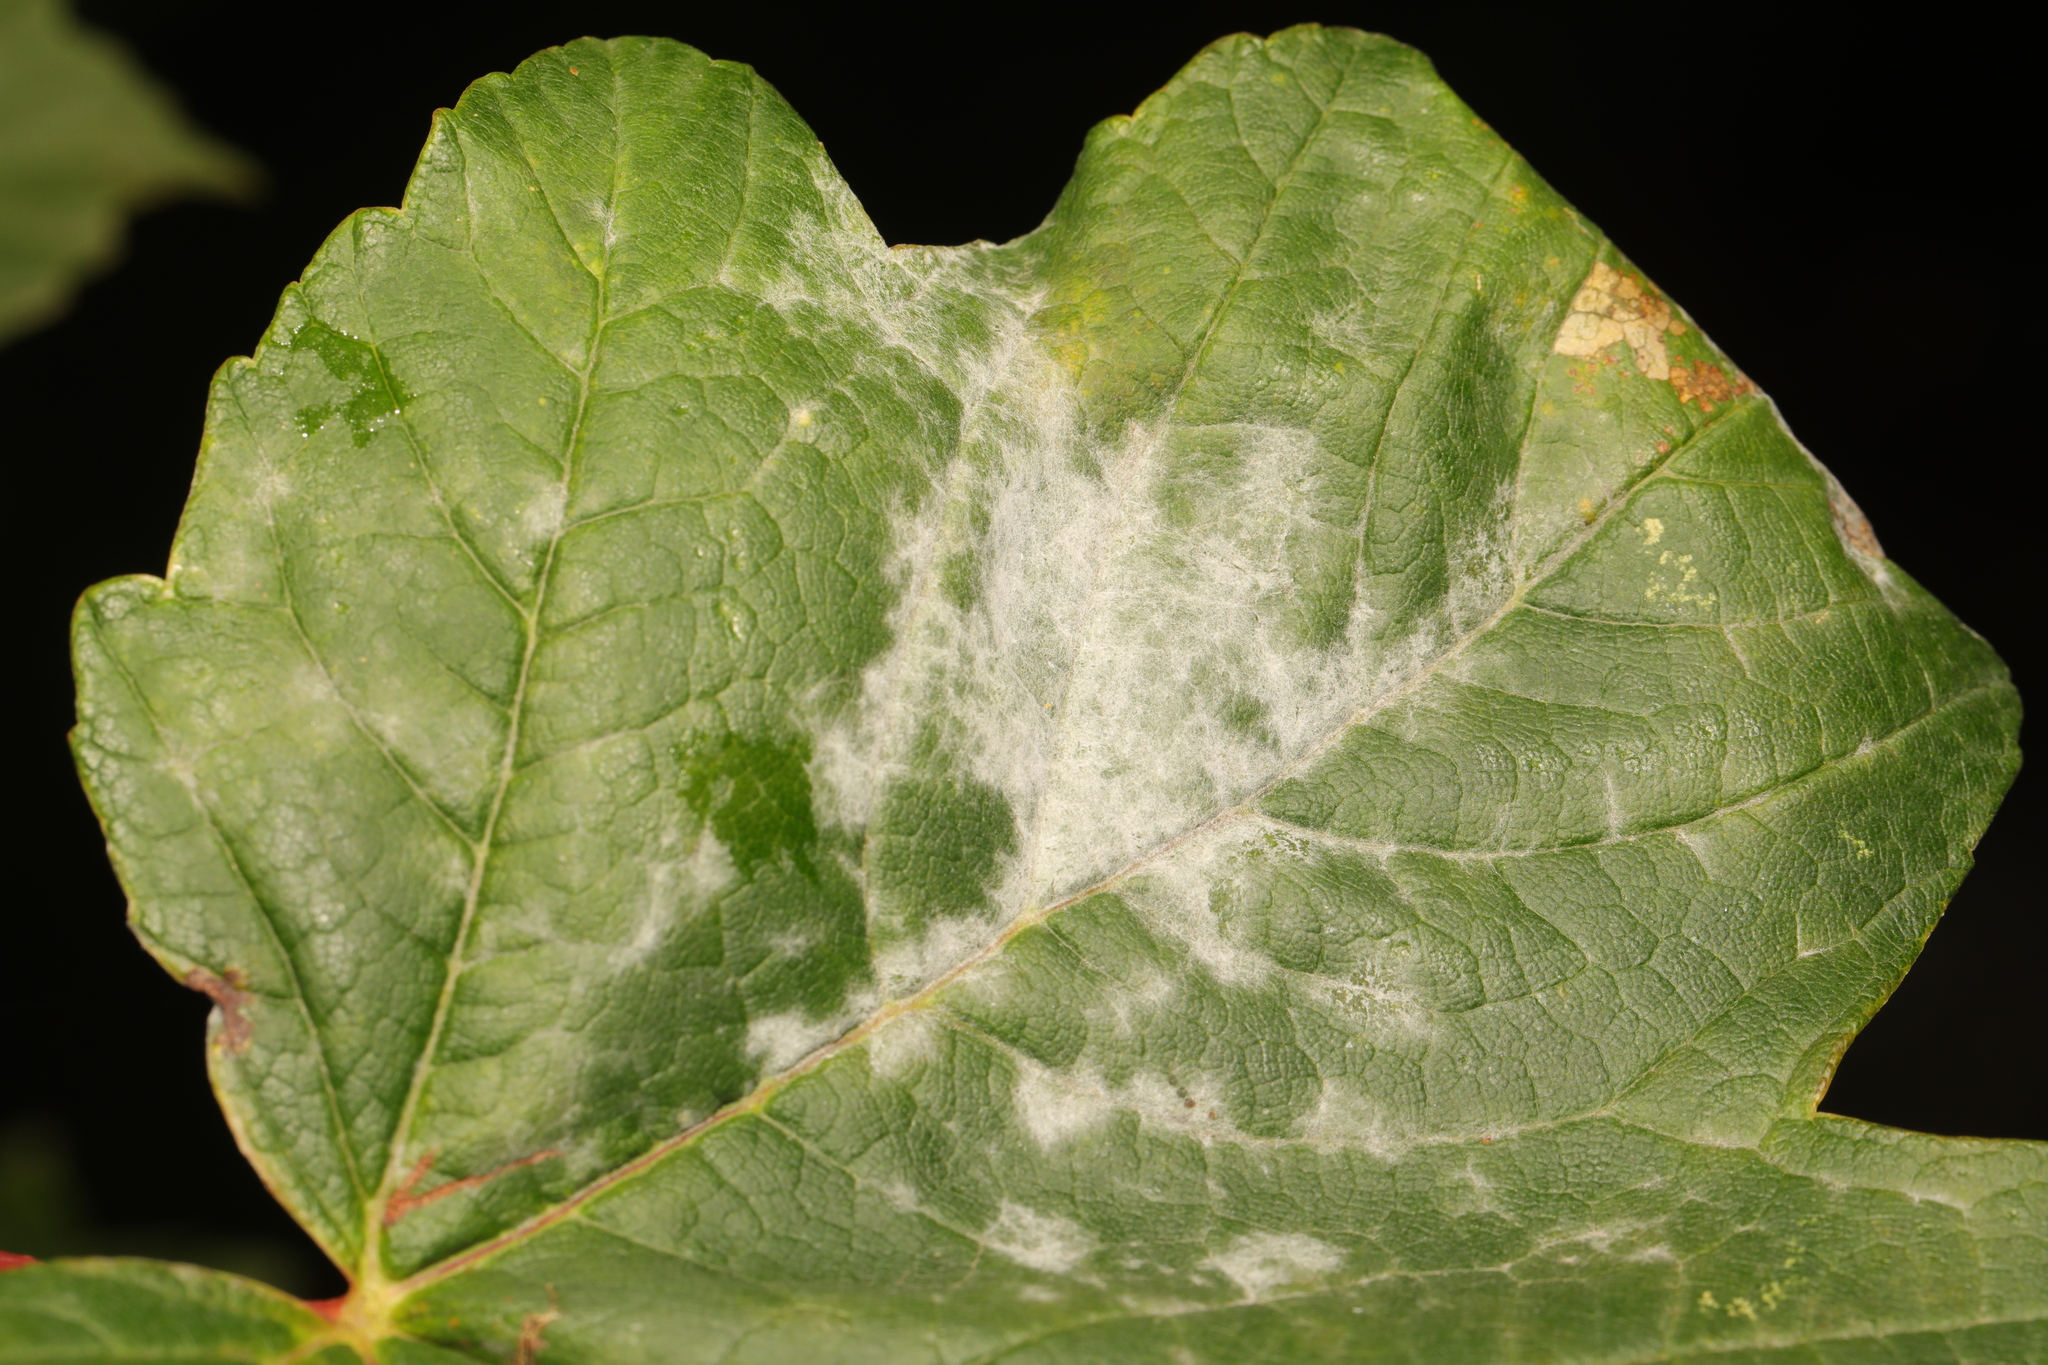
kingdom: Fungi
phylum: Ascomycota
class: Leotiomycetes
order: Helotiales
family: Erysiphaceae
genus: Sawadaea
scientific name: Sawadaea bicornis
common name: Maple mildew
